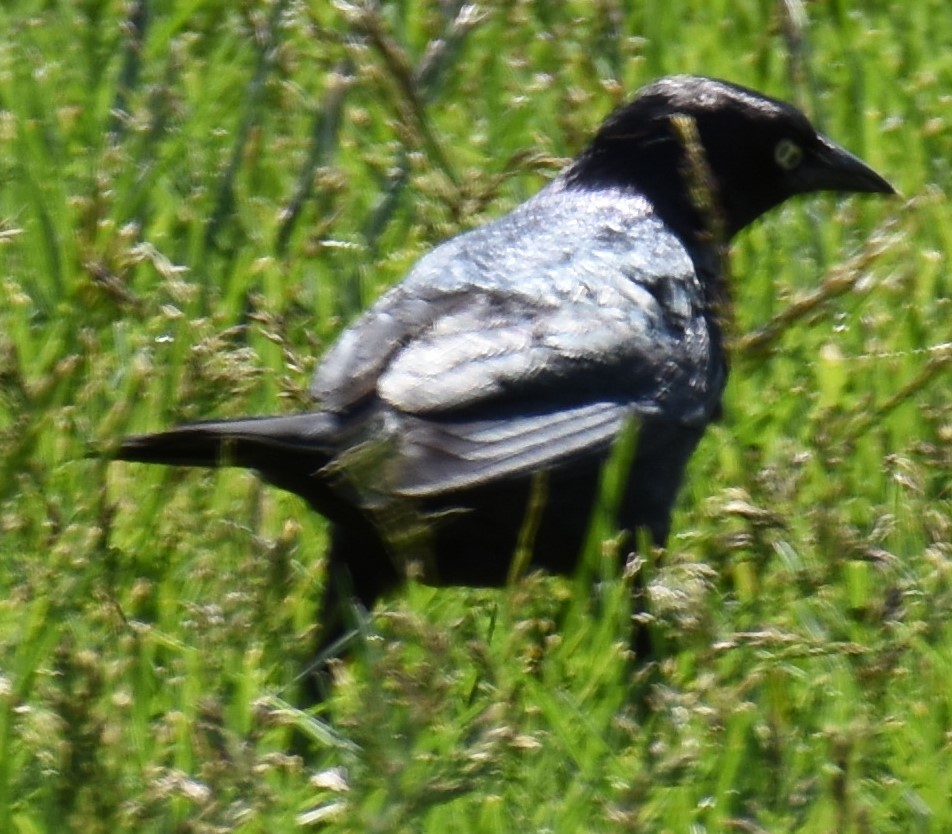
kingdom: Animalia
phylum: Chordata
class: Aves
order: Passeriformes
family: Icteridae
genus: Euphagus
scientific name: Euphagus cyanocephalus
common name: Brewer's blackbird
